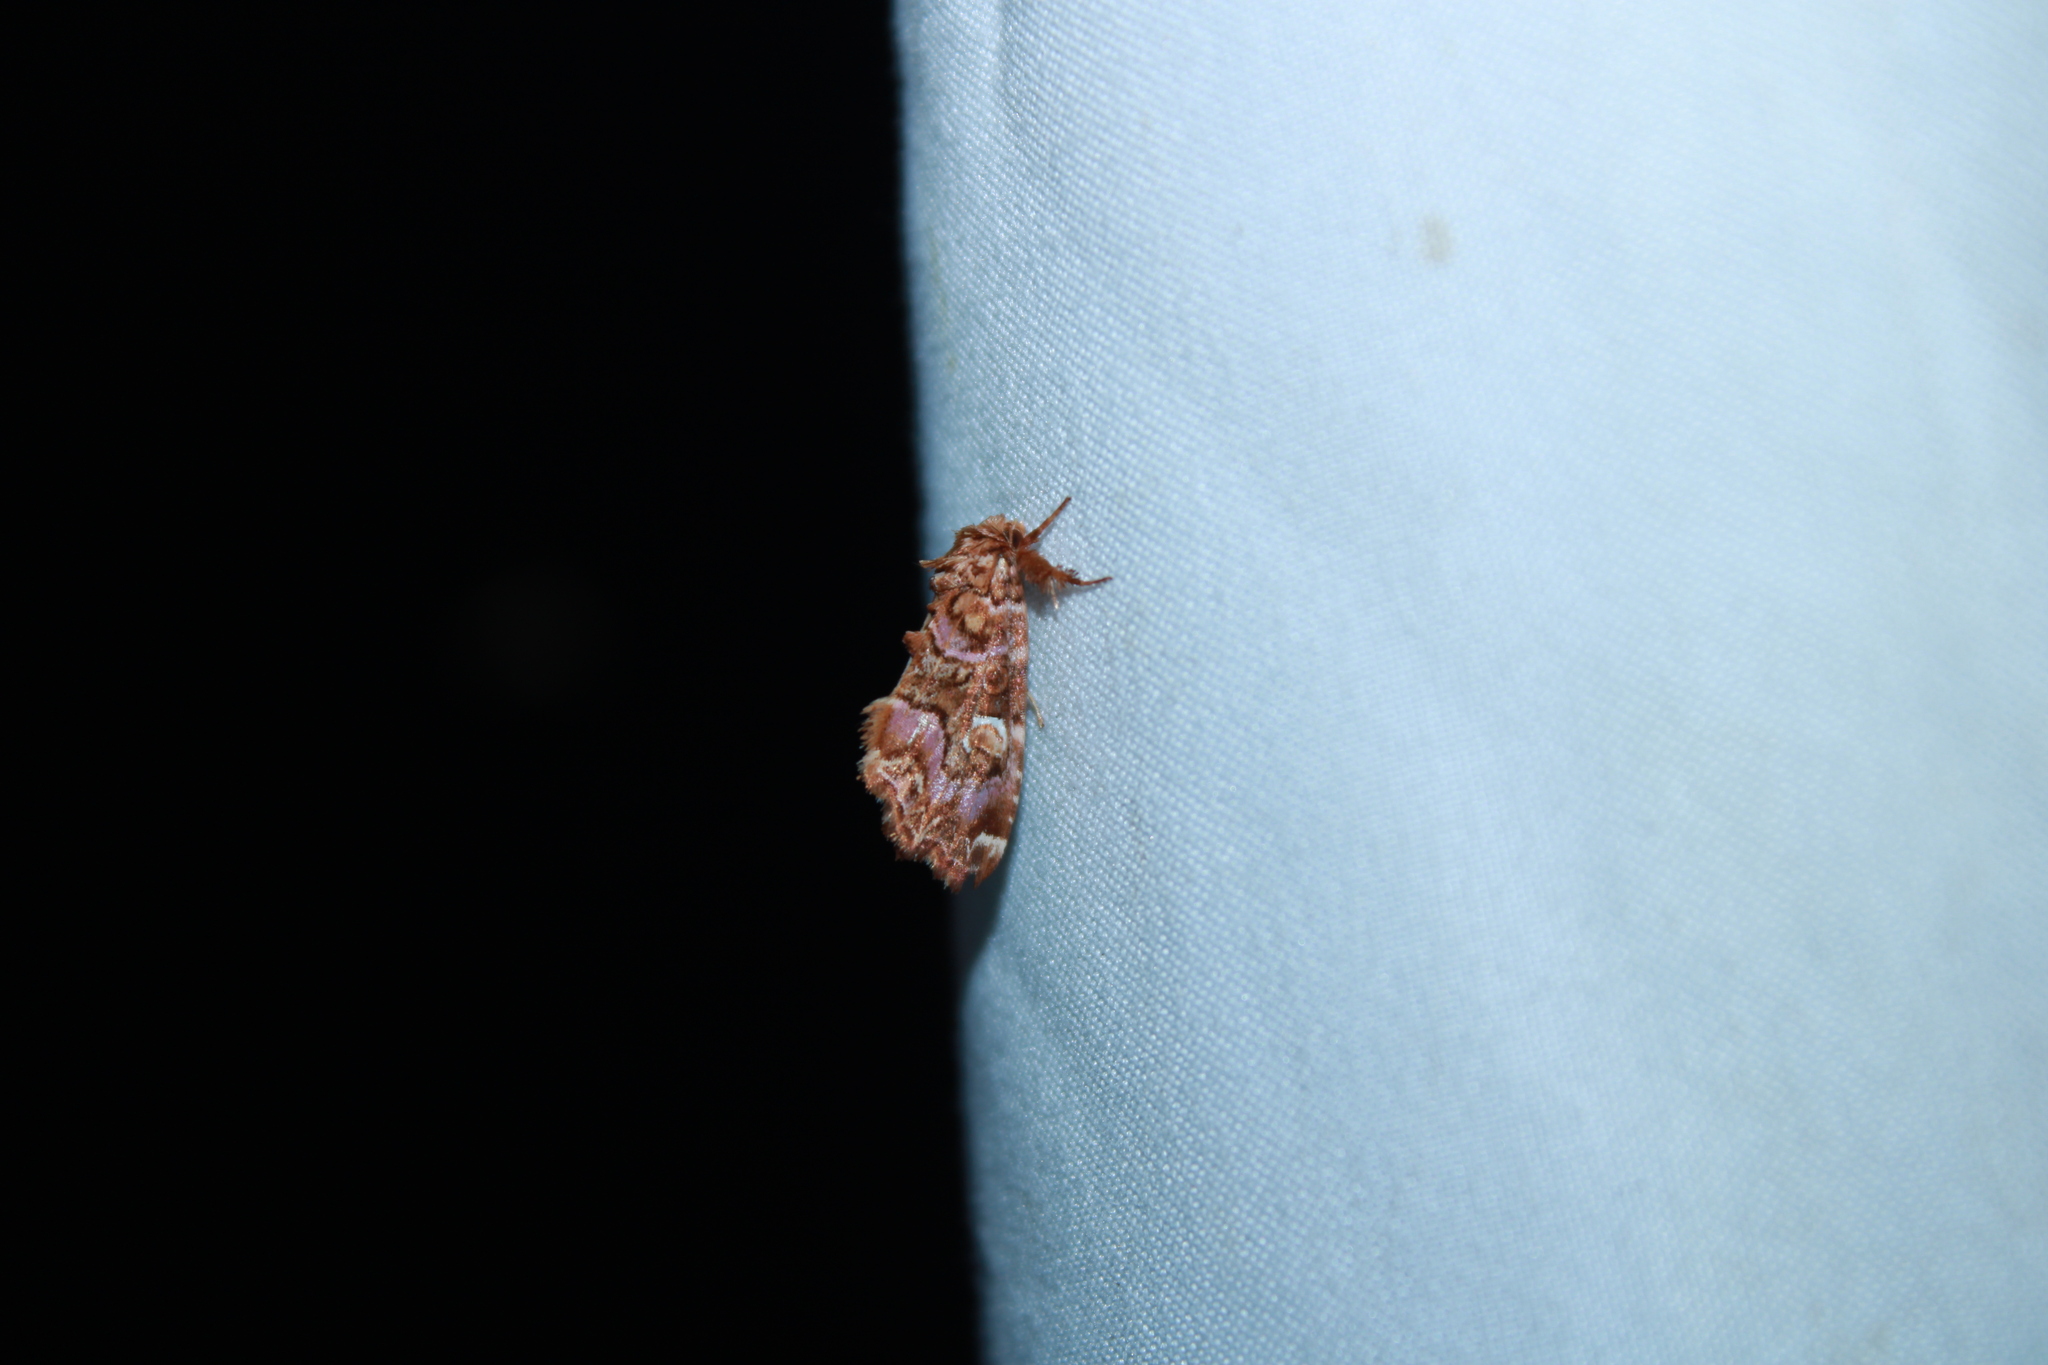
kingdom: Animalia
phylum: Arthropoda
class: Insecta
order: Lepidoptera
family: Noctuidae
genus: Callopistria
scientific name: Callopistria mollissima
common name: Pink-shaded fern moth
